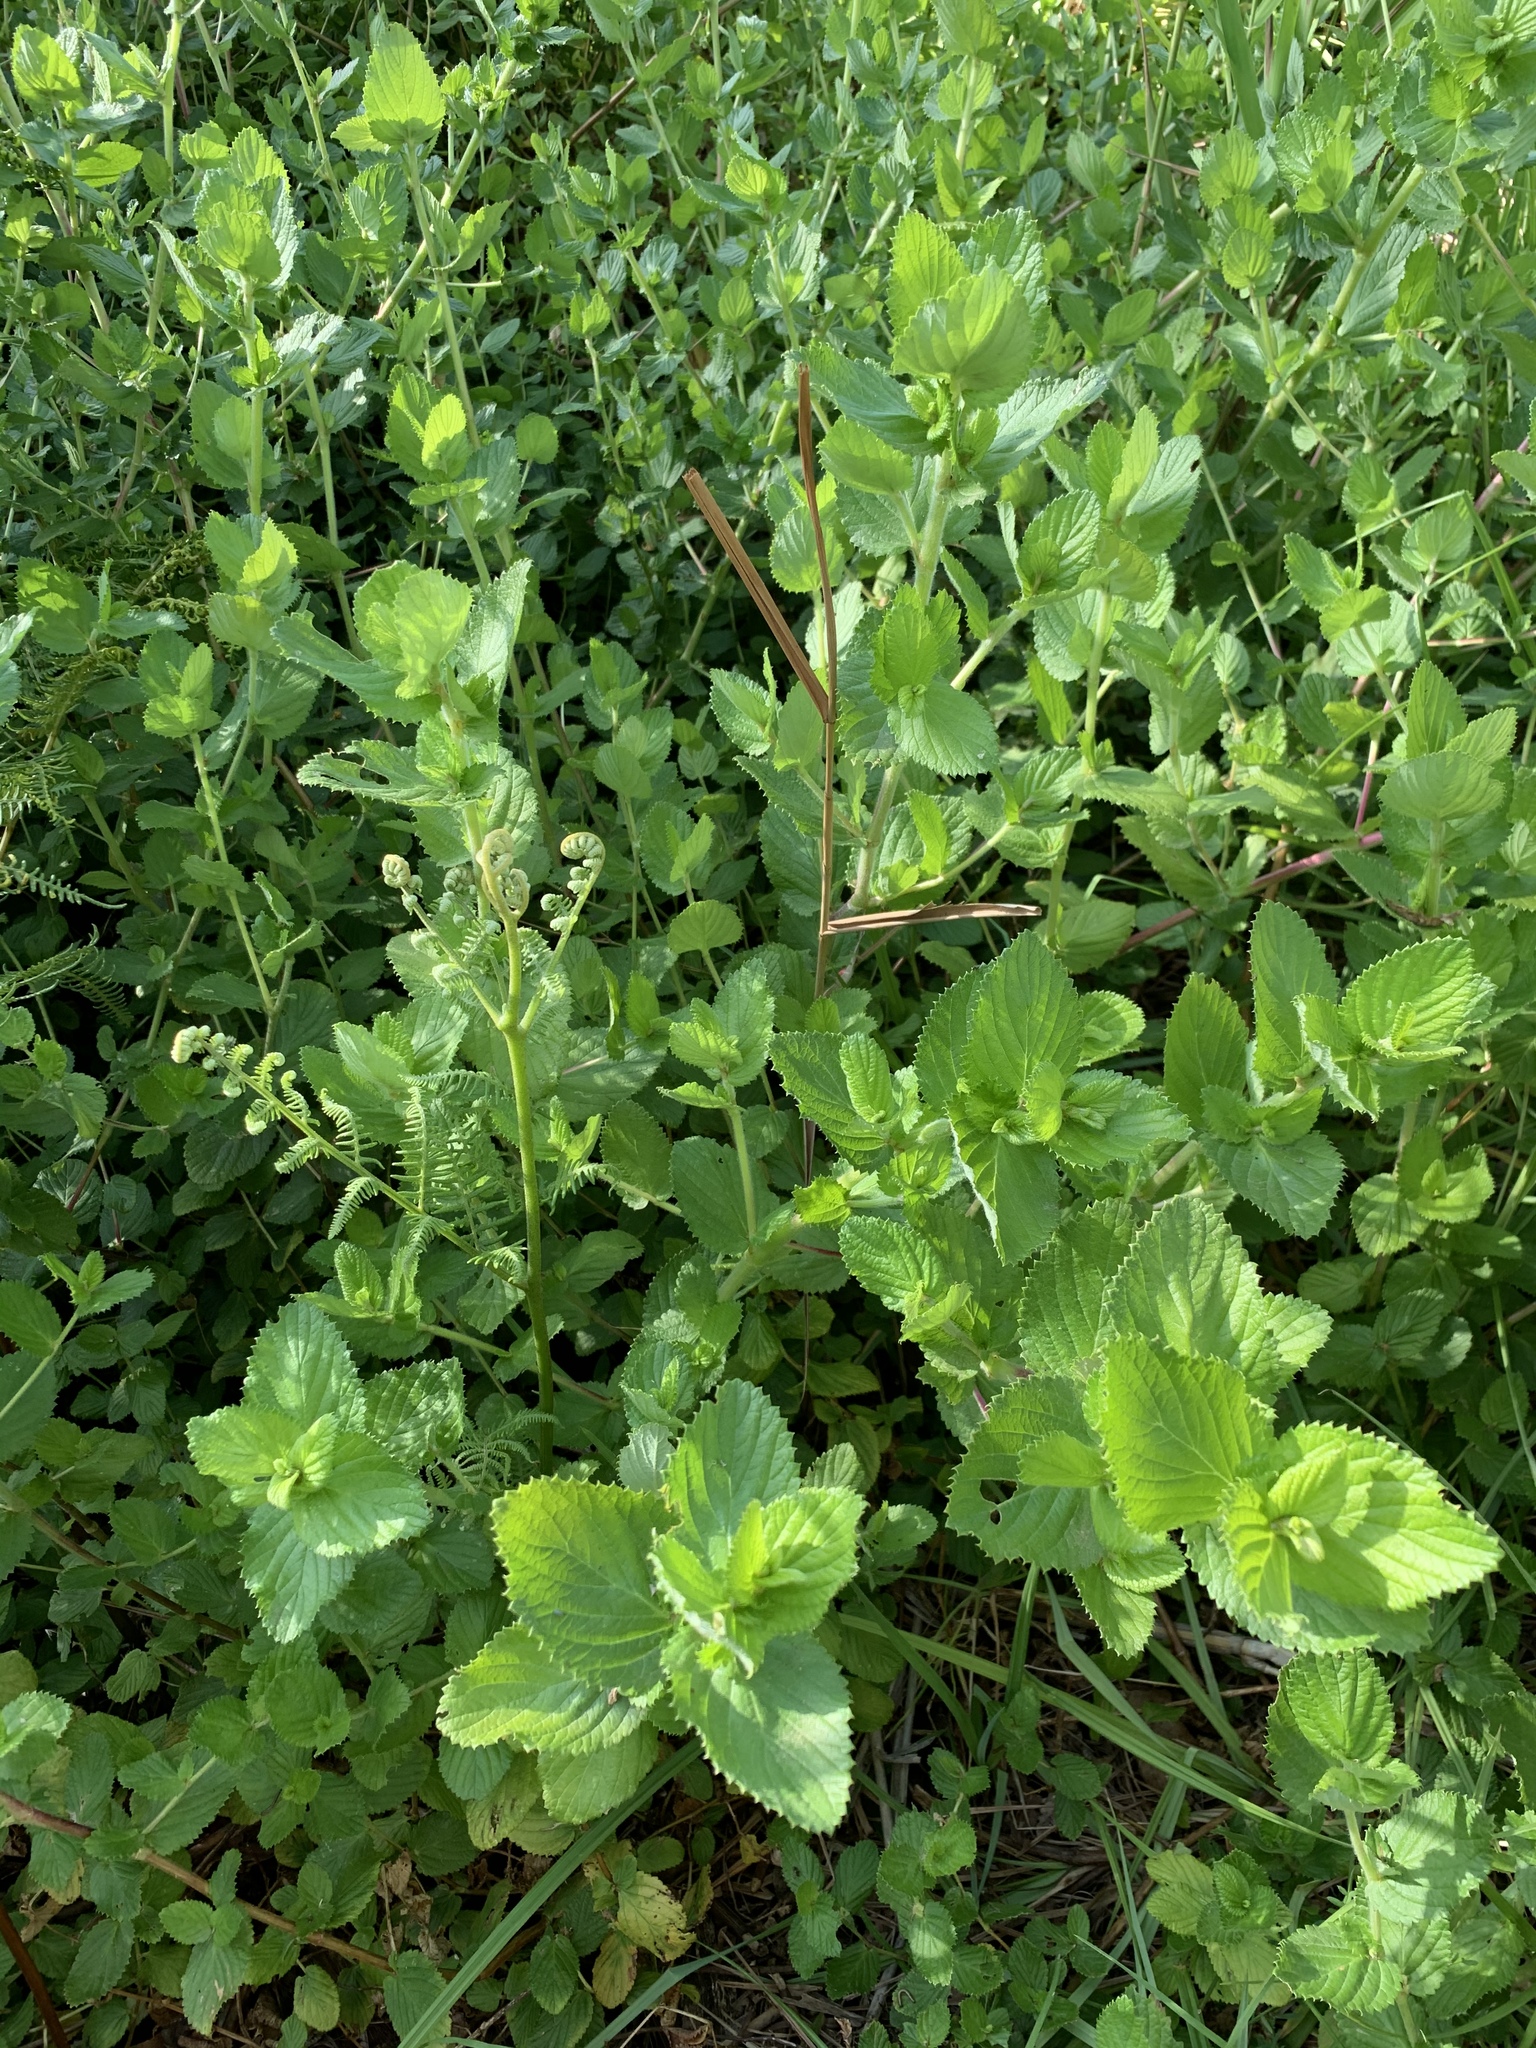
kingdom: Plantae
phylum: Tracheophyta
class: Magnoliopsida
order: Rosales
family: Rosaceae
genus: Cliffortia
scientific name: Cliffortia odorata
